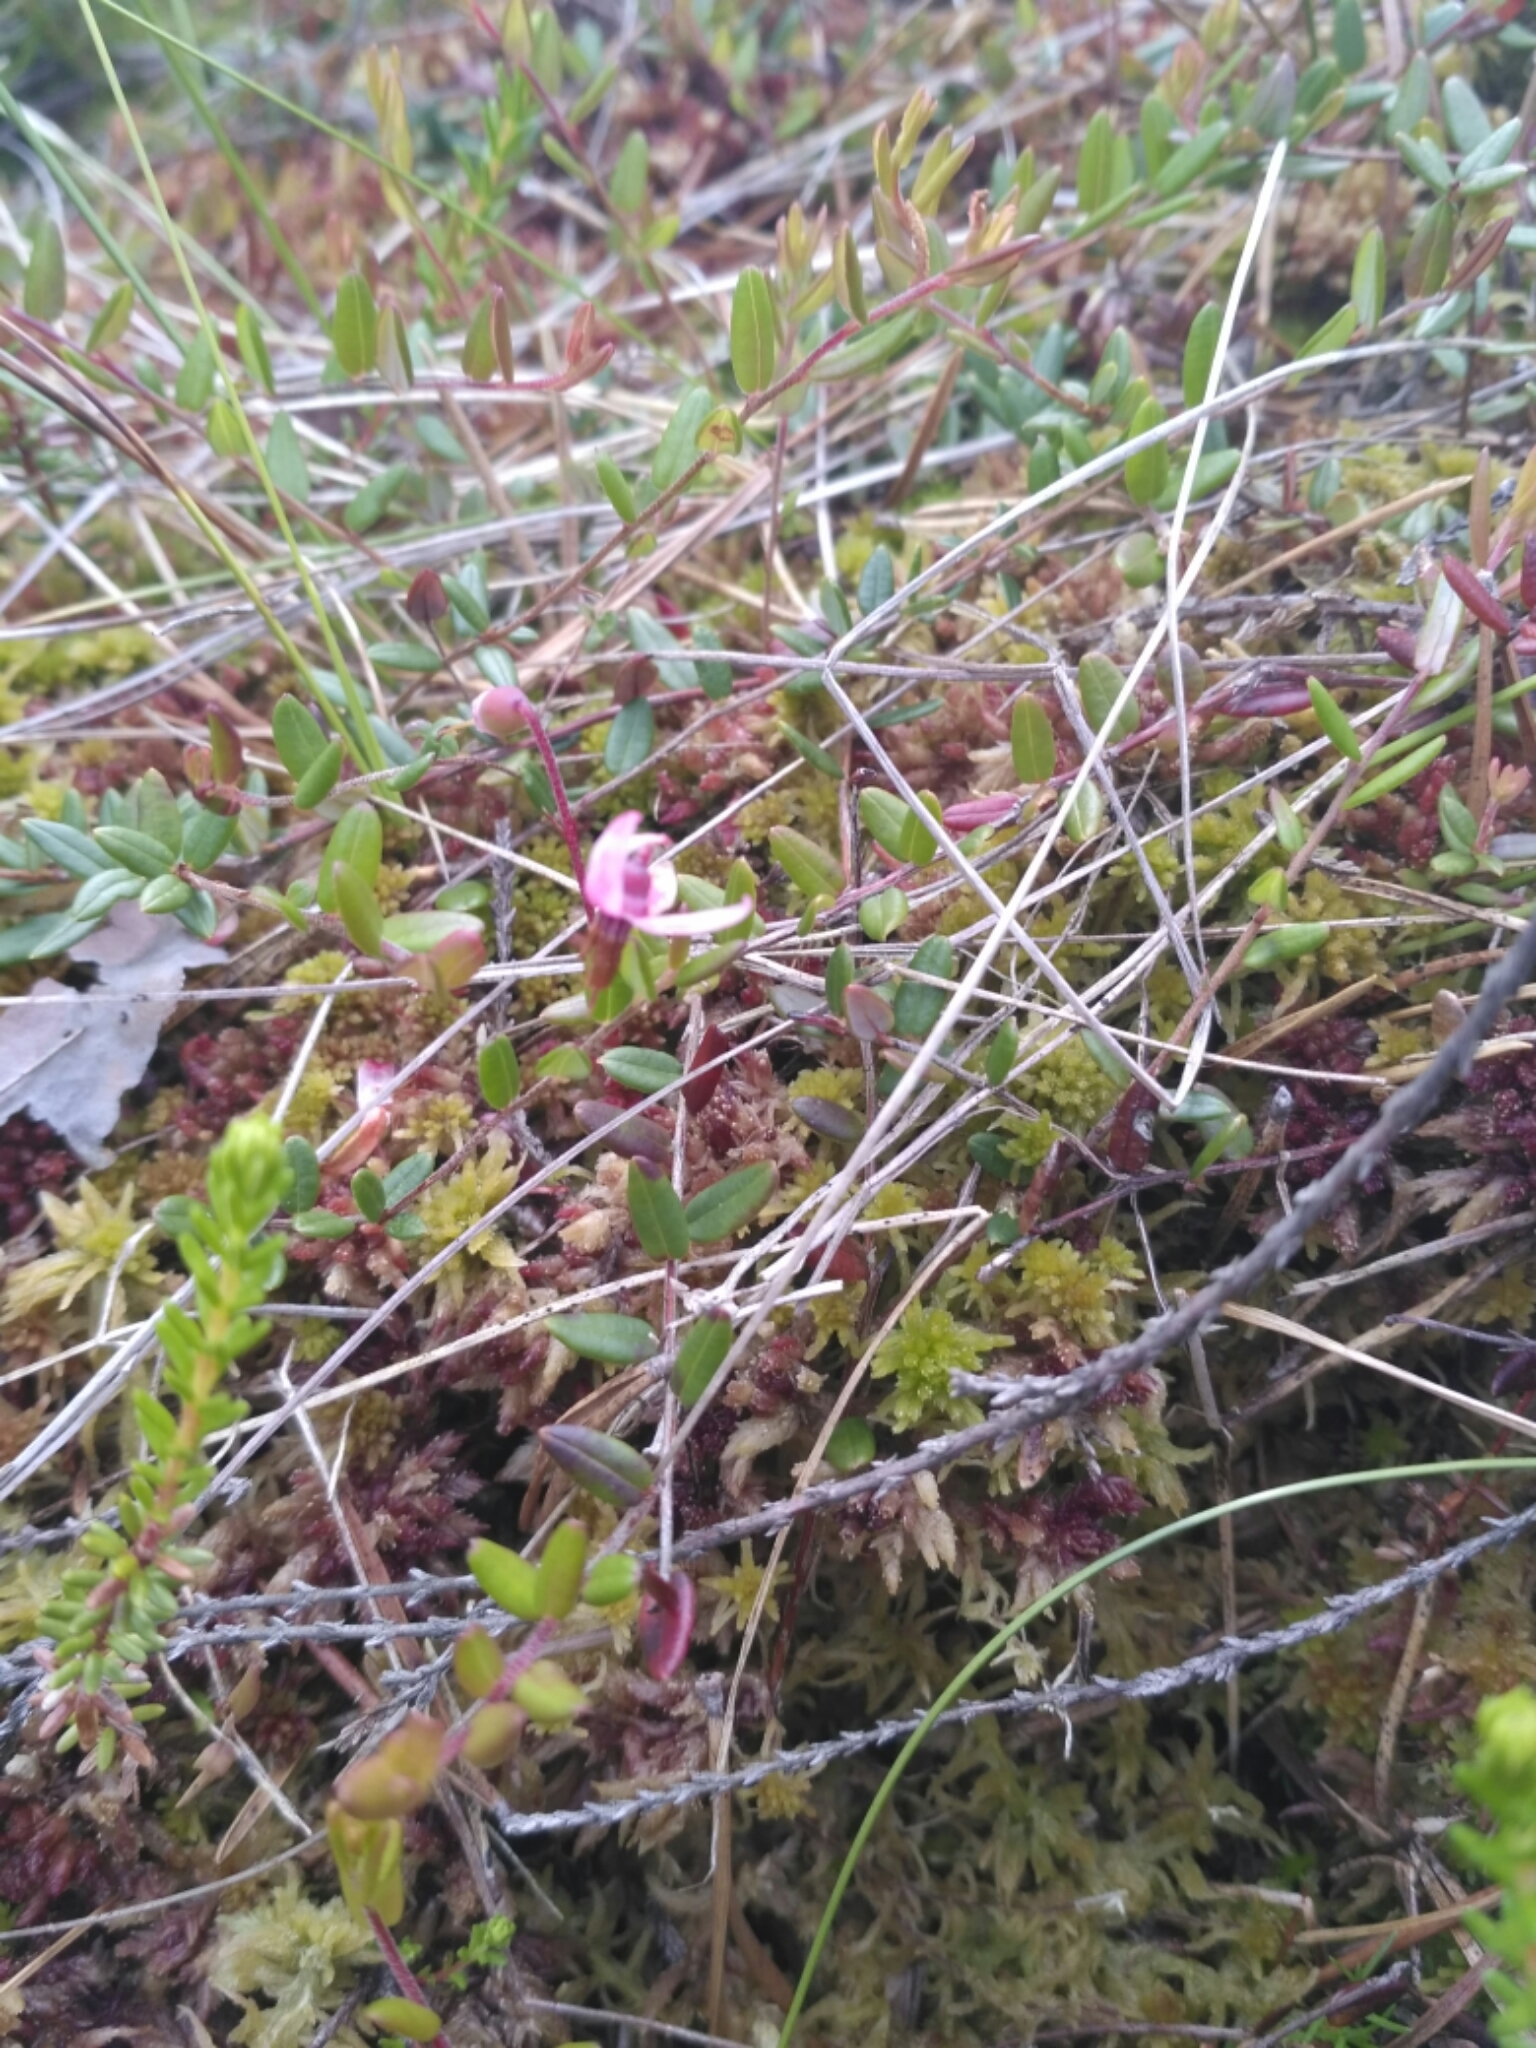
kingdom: Plantae
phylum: Tracheophyta
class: Magnoliopsida
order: Ericales
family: Ericaceae
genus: Vaccinium
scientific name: Vaccinium oxycoccos
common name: Cranberry
